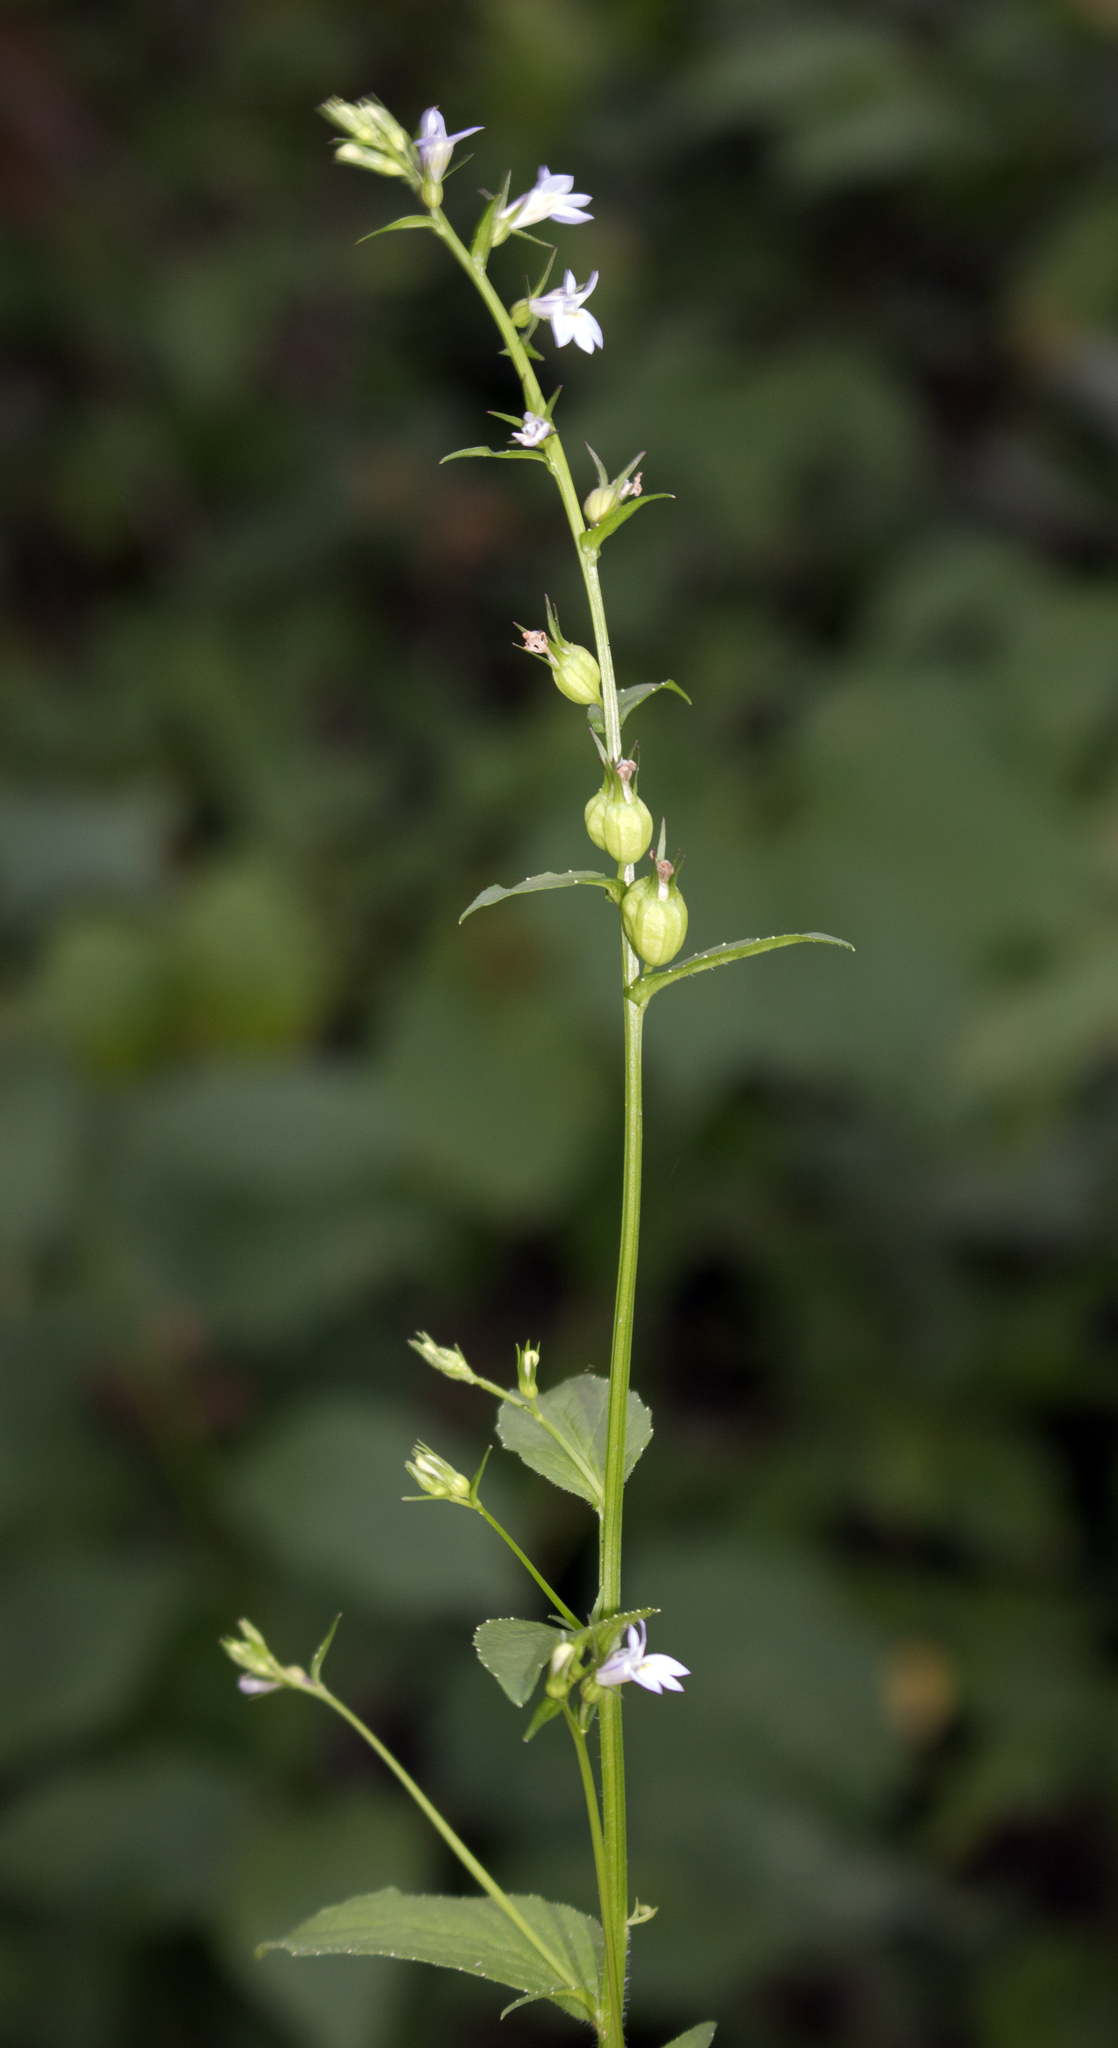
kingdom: Plantae
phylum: Tracheophyta
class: Magnoliopsida
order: Asterales
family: Campanulaceae
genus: Lobelia
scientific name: Lobelia inflata
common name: Indian tobacco
